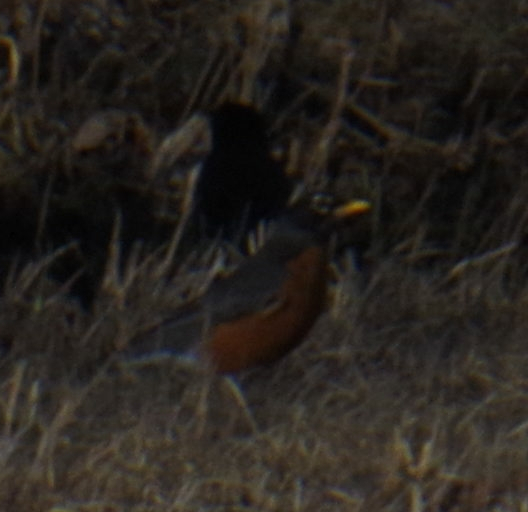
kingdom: Animalia
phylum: Chordata
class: Aves
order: Passeriformes
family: Turdidae
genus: Turdus
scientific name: Turdus migratorius
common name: American robin
